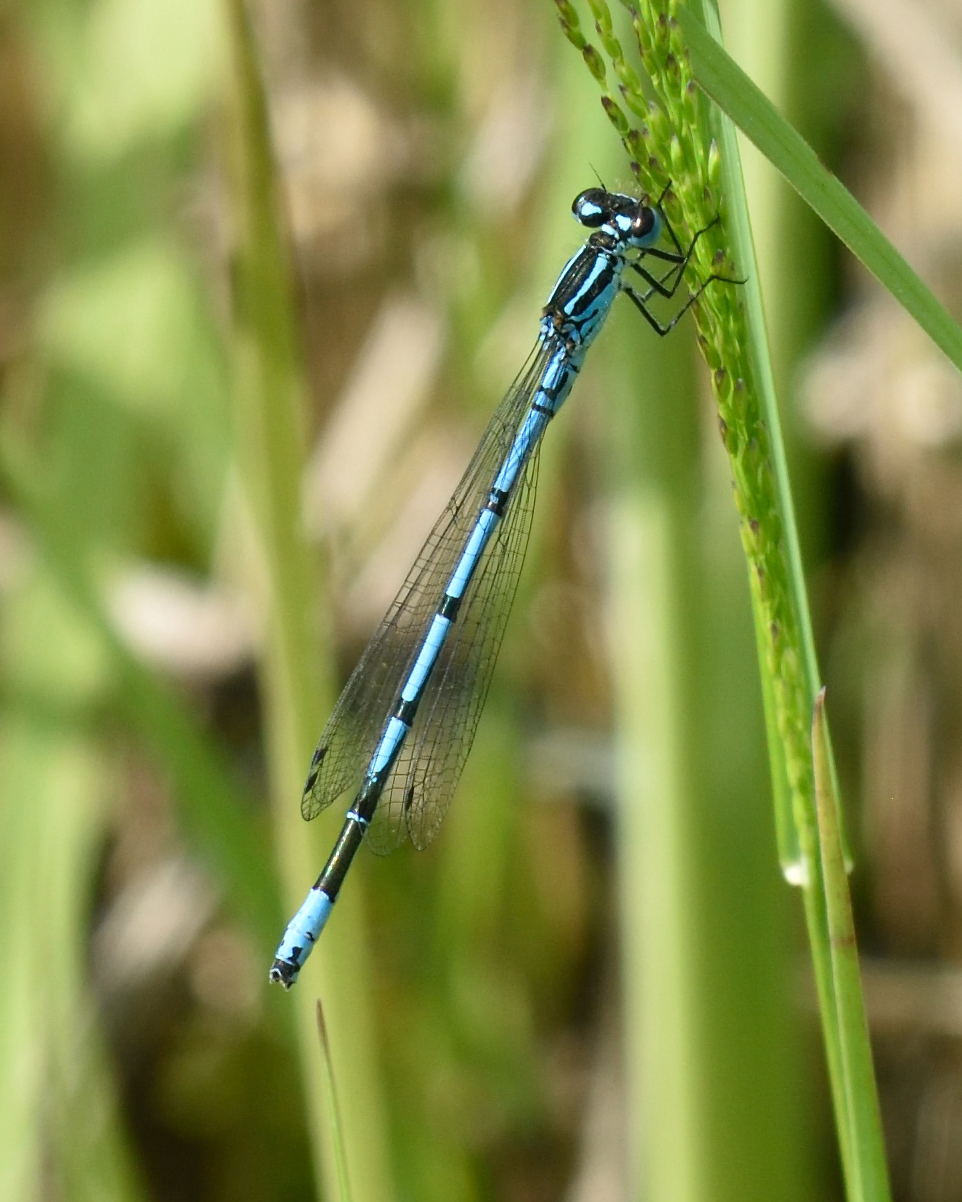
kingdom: Animalia
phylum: Arthropoda
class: Insecta
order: Odonata
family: Coenagrionidae
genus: Coenagrion
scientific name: Coenagrion puella
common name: Azure damselfly
